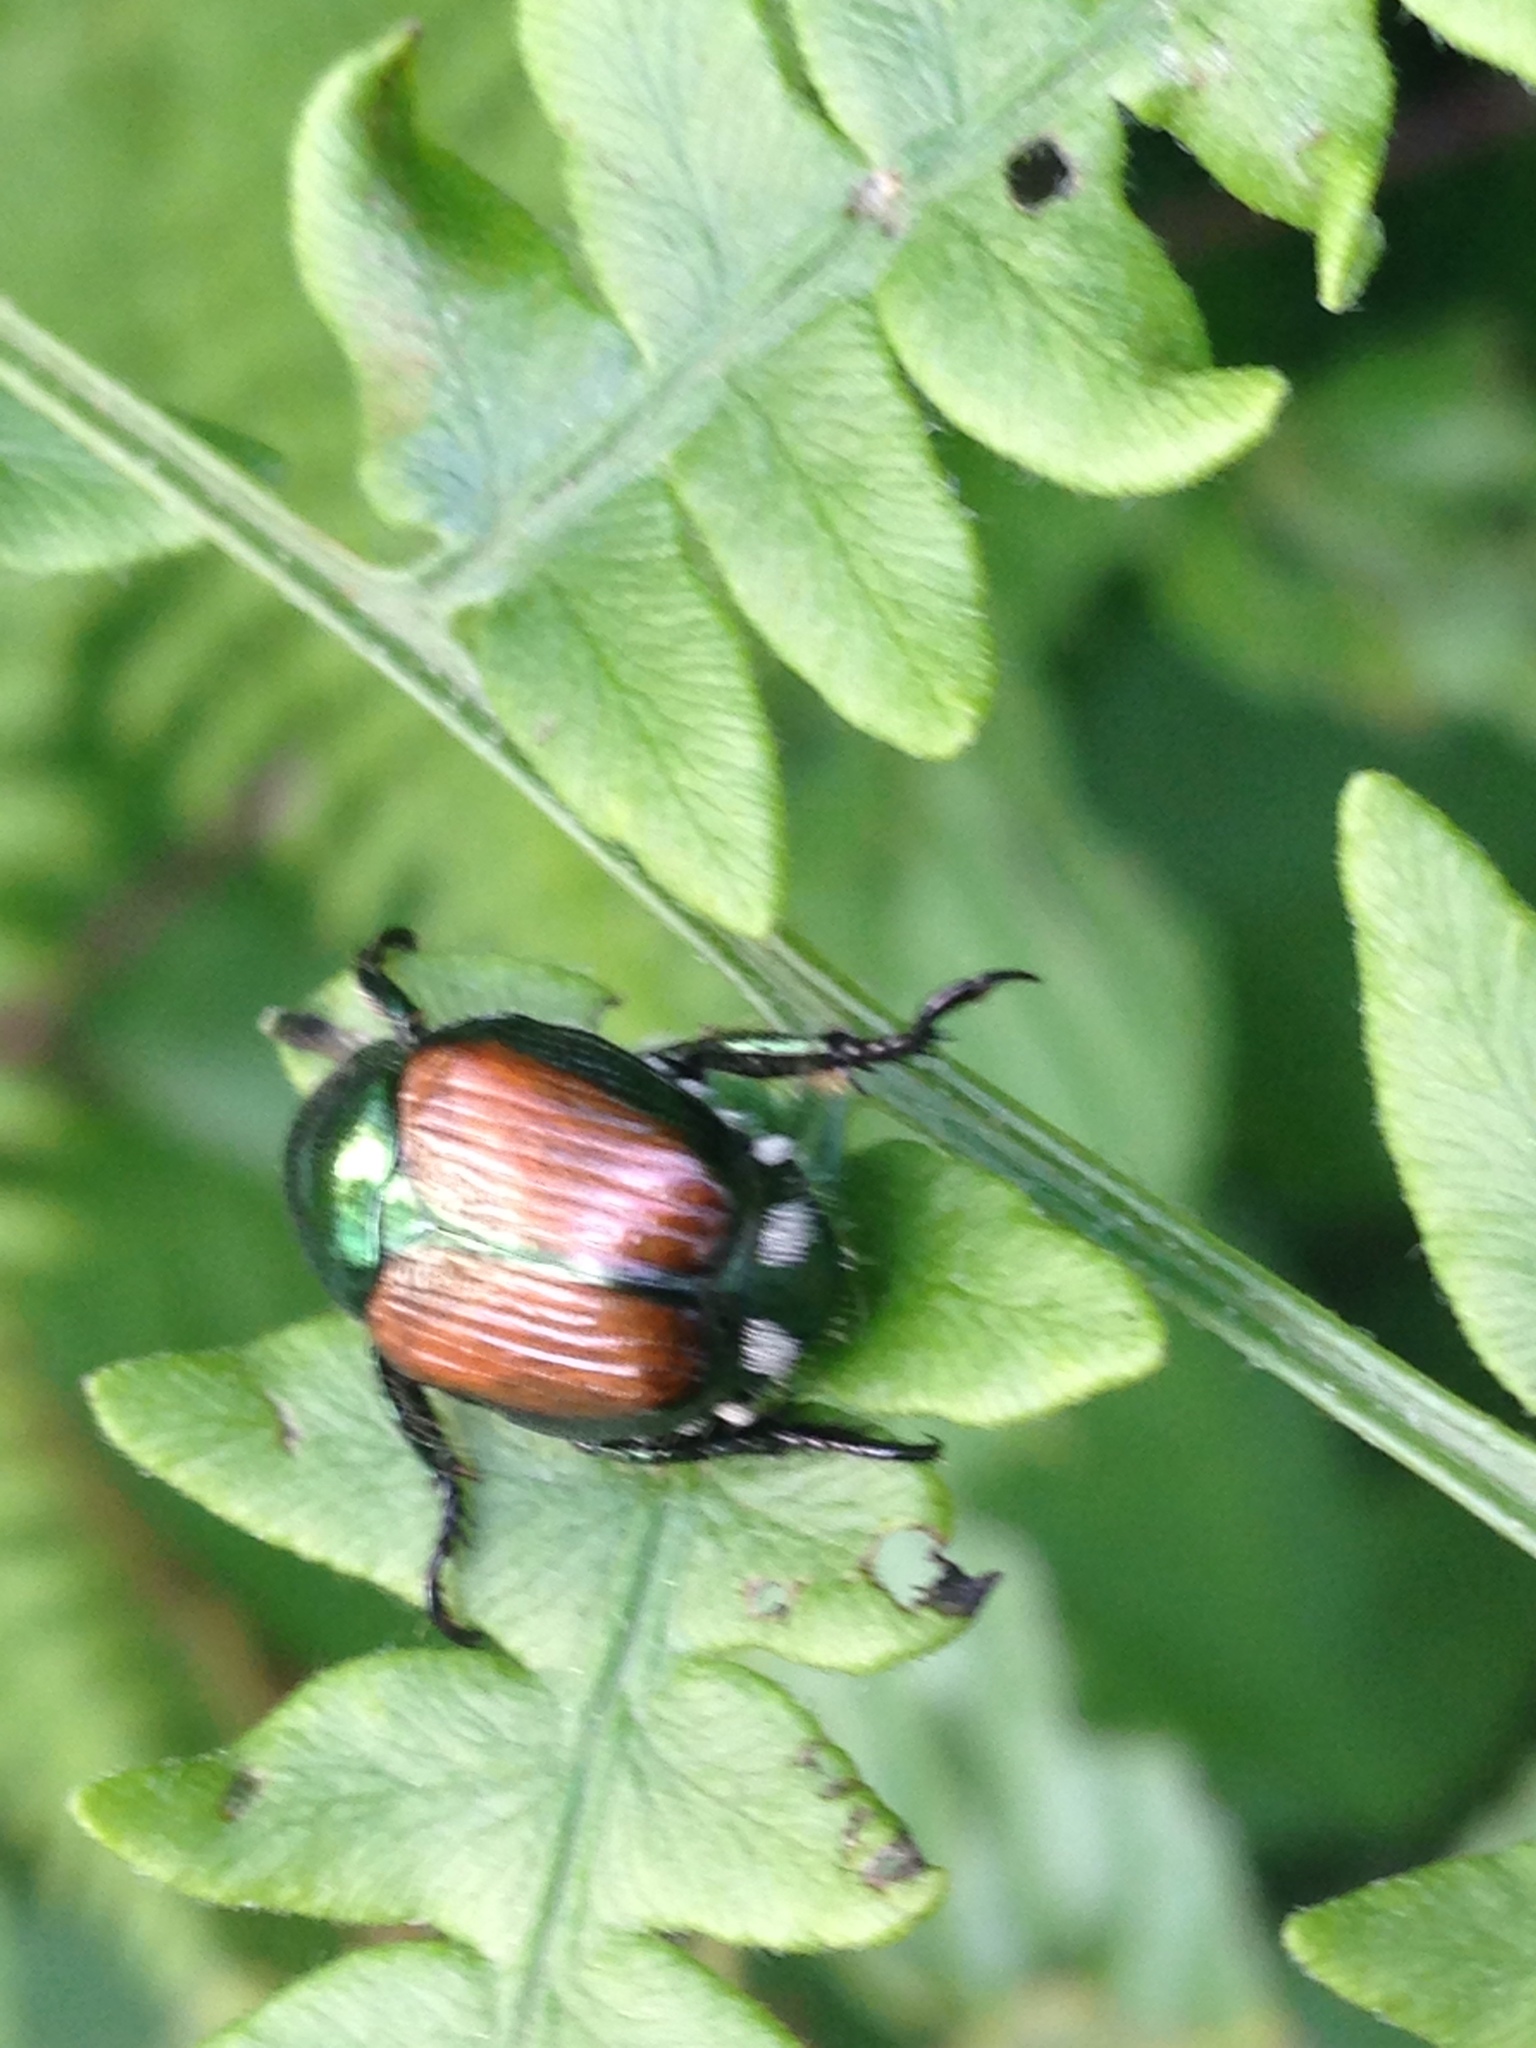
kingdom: Animalia
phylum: Arthropoda
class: Insecta
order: Coleoptera
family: Scarabaeidae
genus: Popillia
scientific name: Popillia japonica
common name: Japanese beetle
